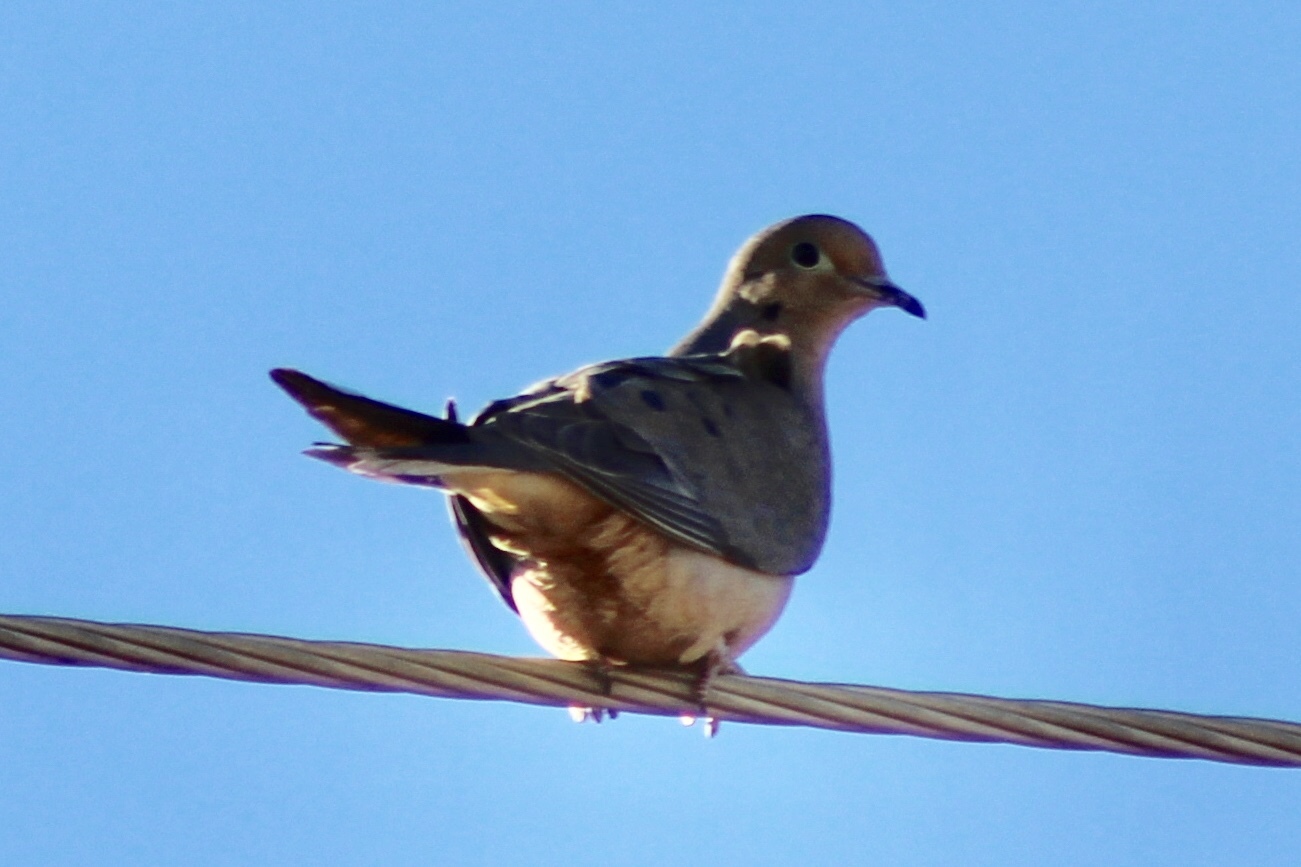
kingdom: Animalia
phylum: Chordata
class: Aves
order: Columbiformes
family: Columbidae
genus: Zenaida
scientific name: Zenaida macroura
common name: Mourning dove
